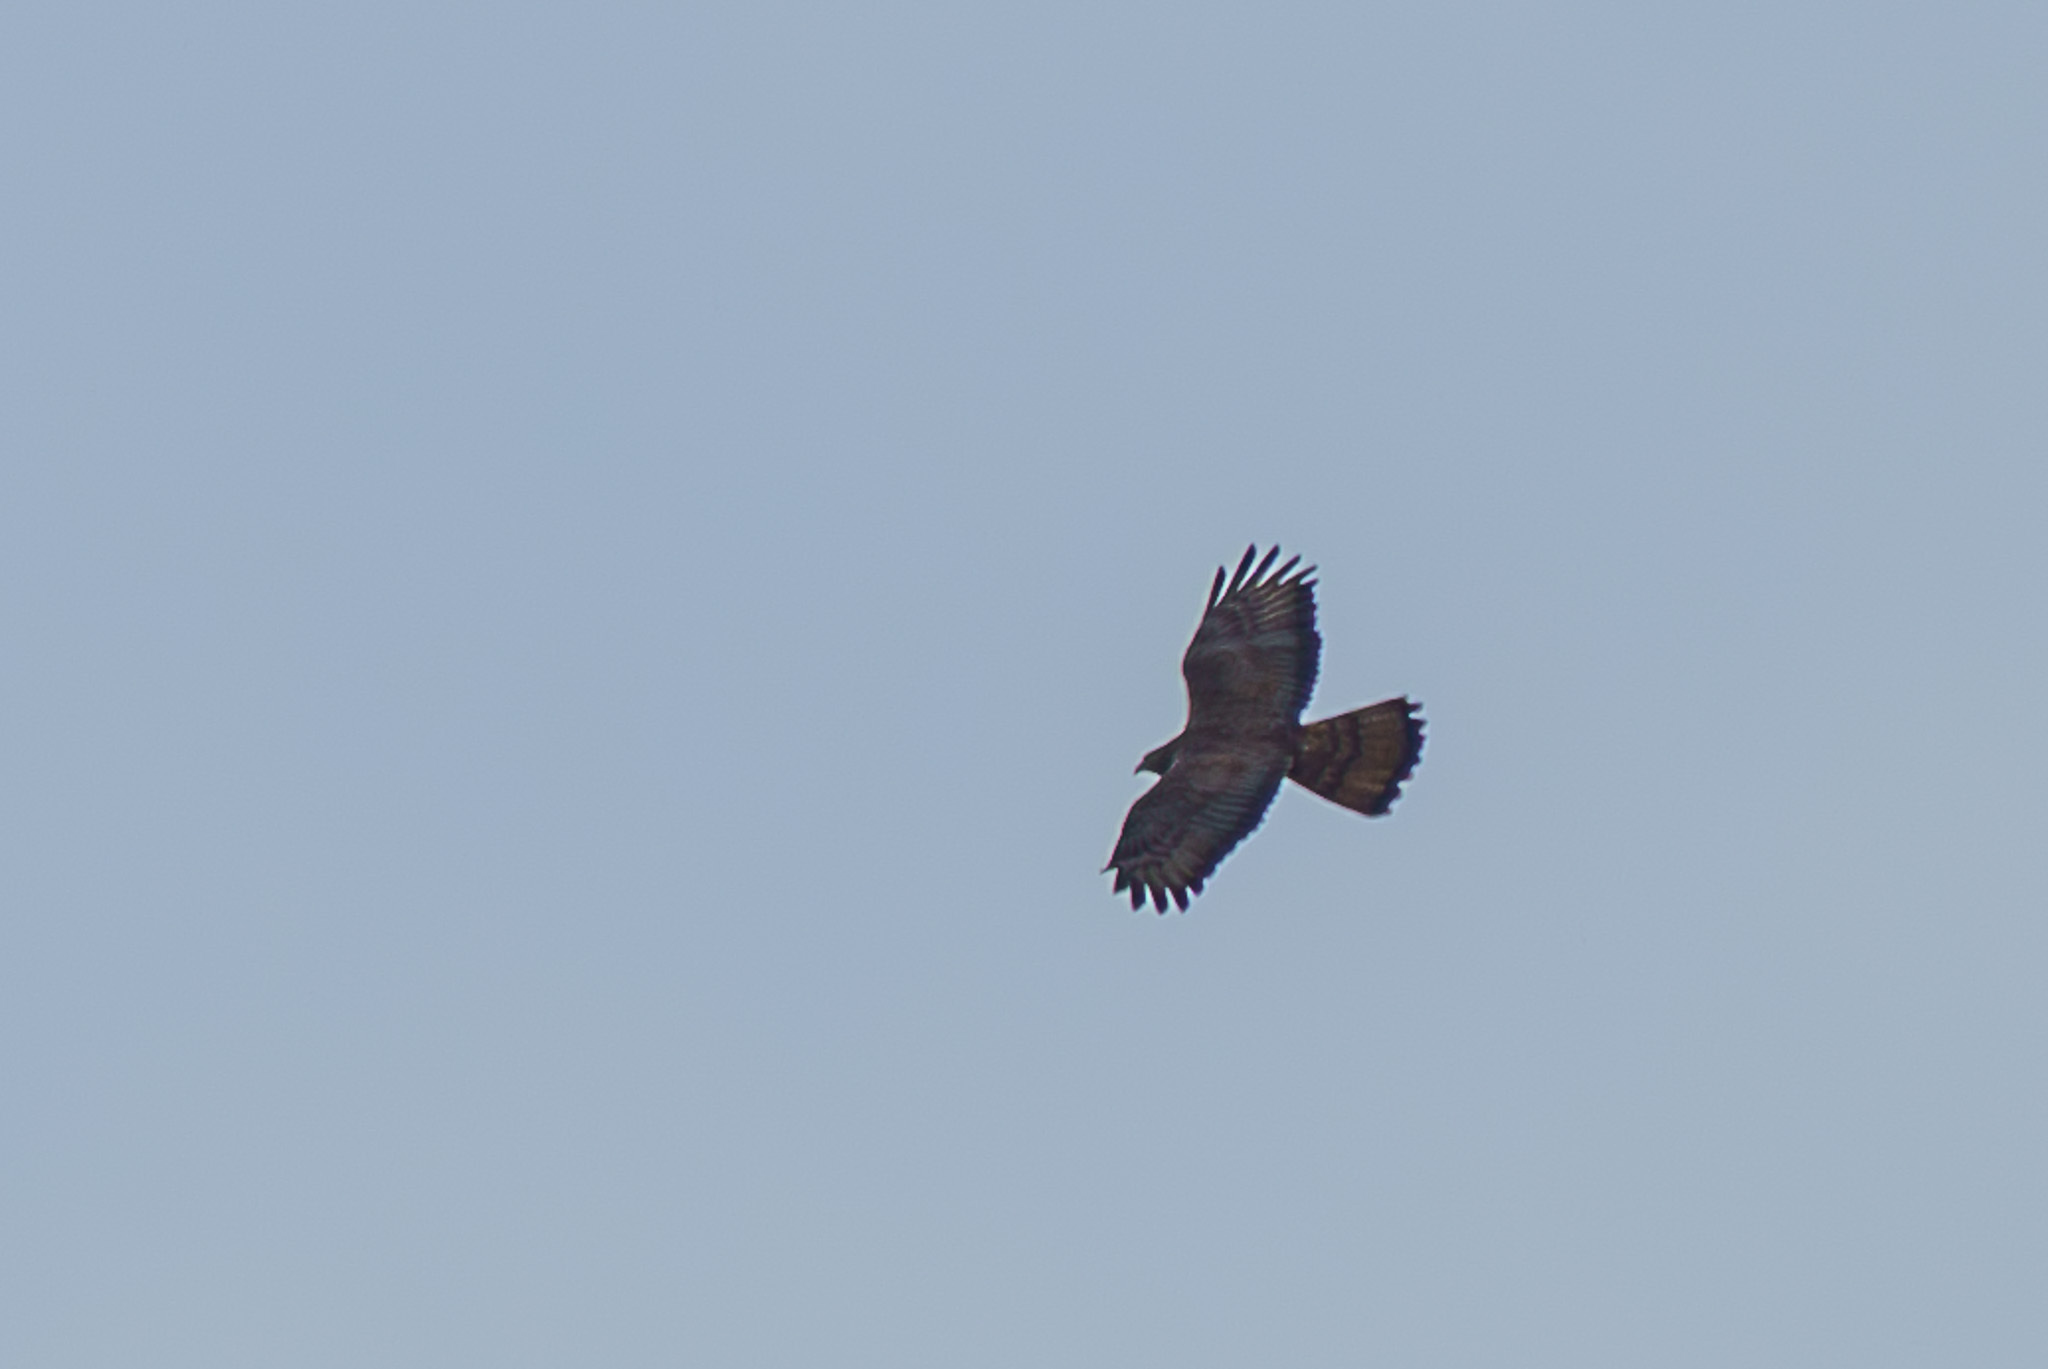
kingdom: Animalia
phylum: Chordata
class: Aves
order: Accipitriformes
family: Accipitridae
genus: Pernis
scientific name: Pernis apivorus
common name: European honey buzzard
